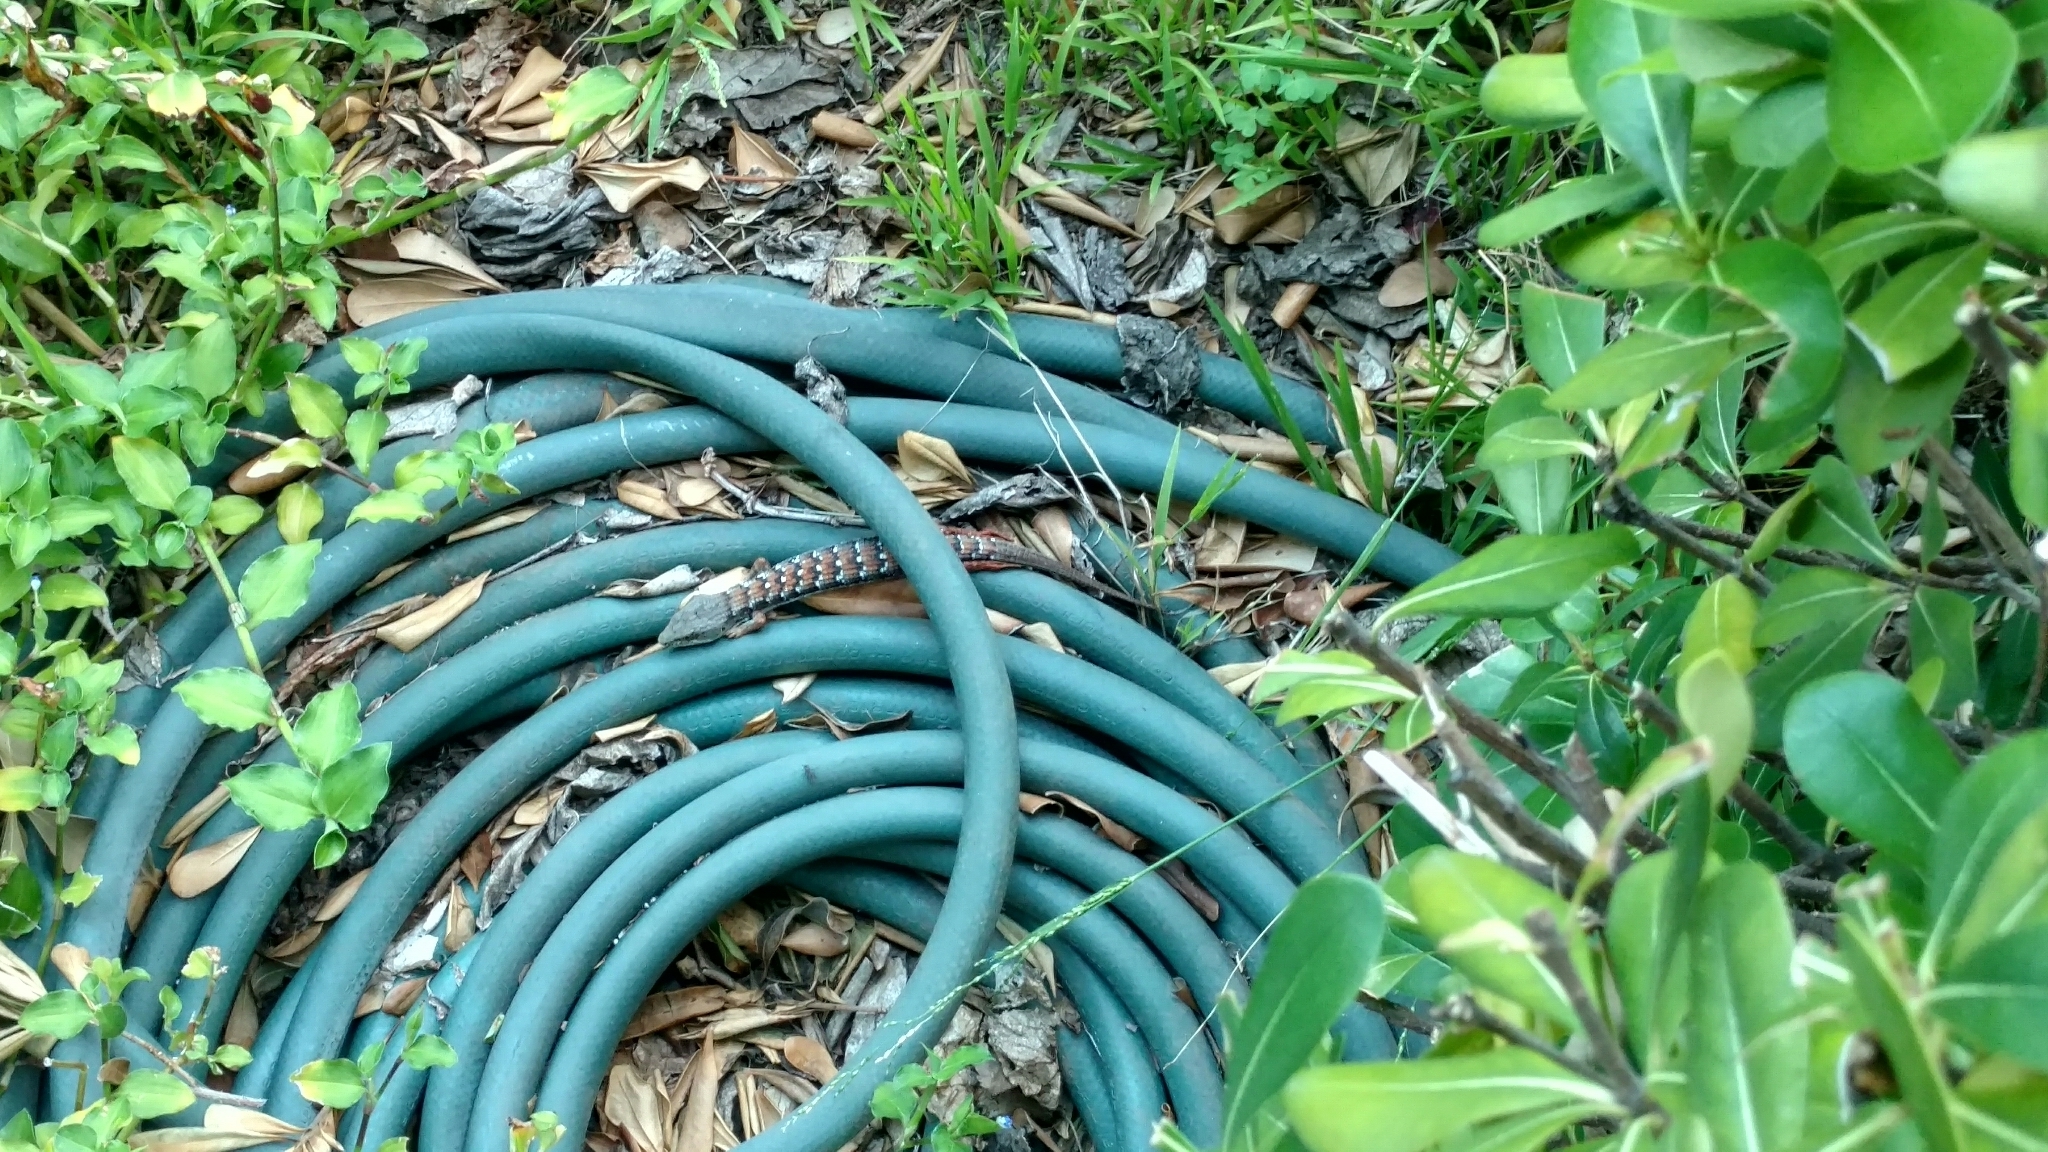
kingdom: Animalia
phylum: Chordata
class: Squamata
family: Anguidae
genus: Elgaria
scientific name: Elgaria multicarinata
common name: Southern alligator lizard
